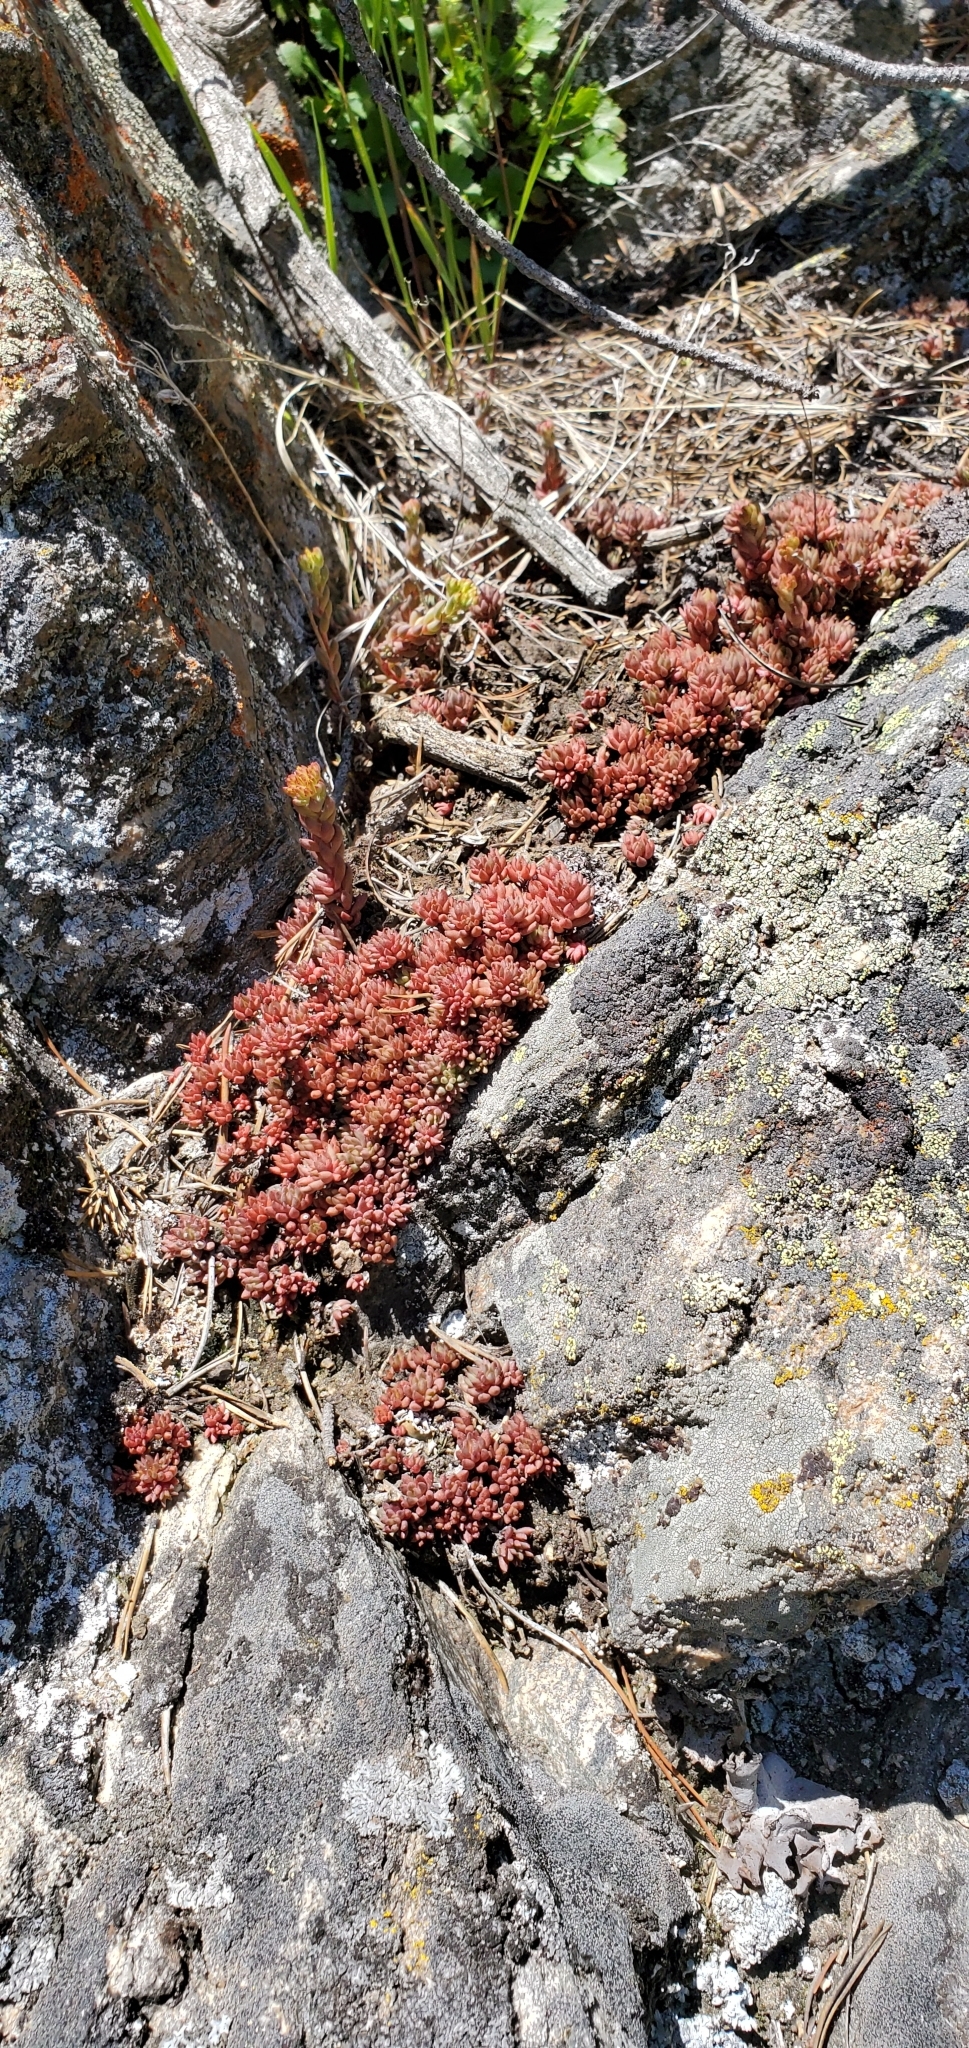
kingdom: Plantae
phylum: Tracheophyta
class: Magnoliopsida
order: Saxifragales
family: Crassulaceae
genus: Sedum
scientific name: Sedum lanceolatum
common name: Common stonecrop
